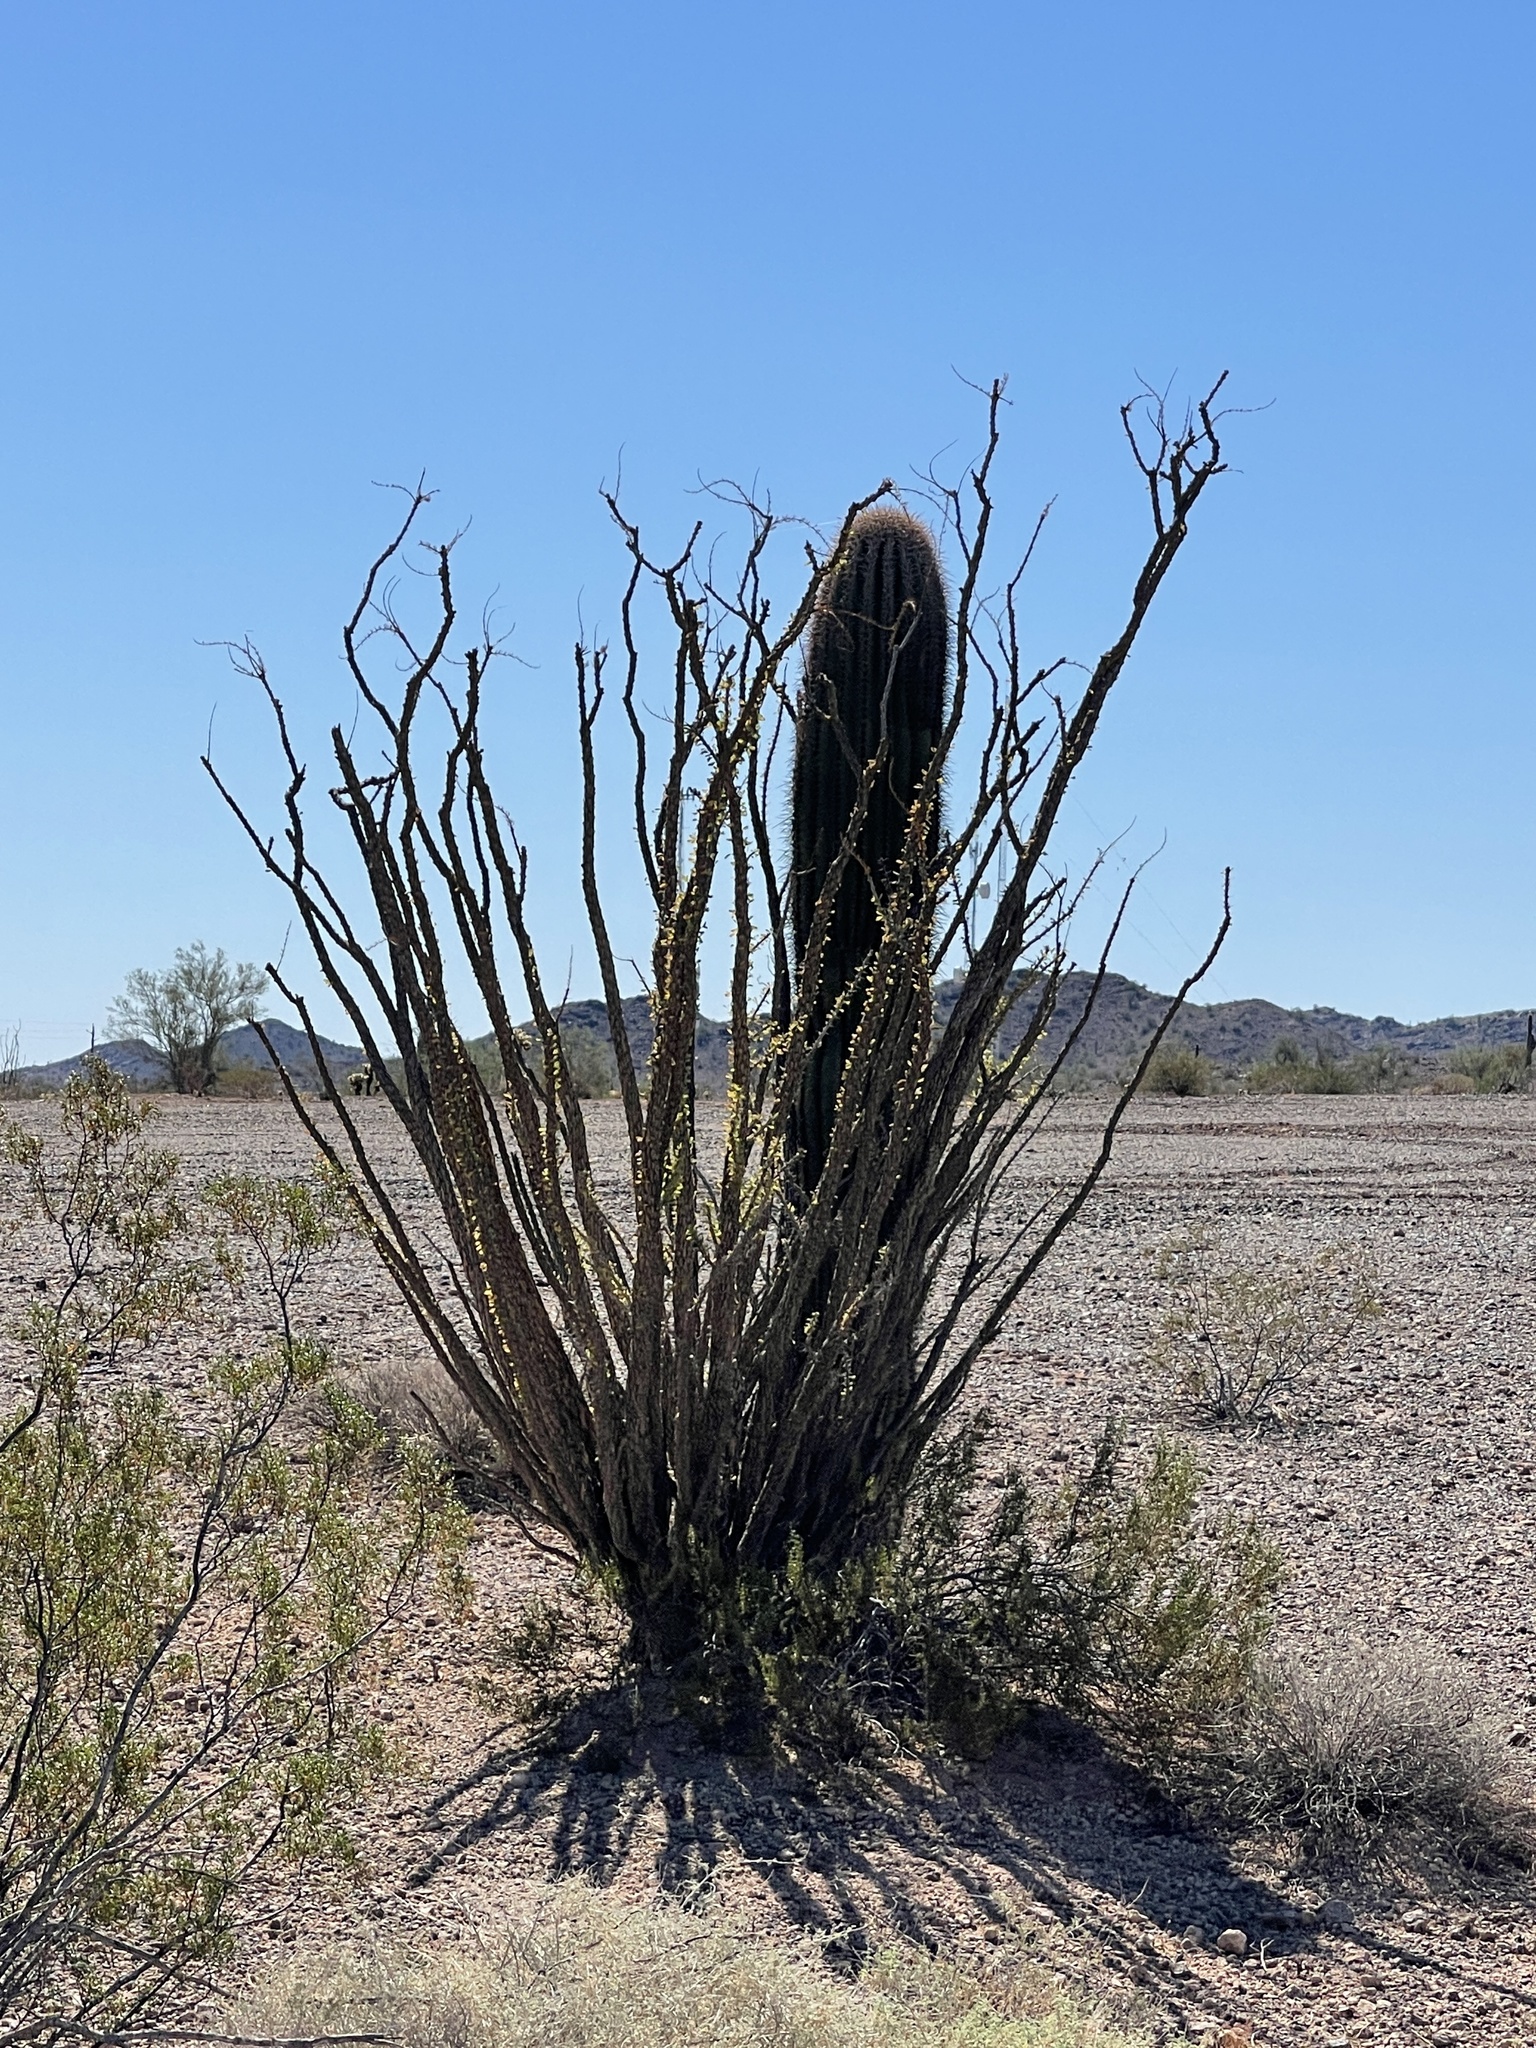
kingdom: Plantae
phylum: Tracheophyta
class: Magnoliopsida
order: Ericales
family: Fouquieriaceae
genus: Fouquieria
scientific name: Fouquieria splendens
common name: Vine-cactus
